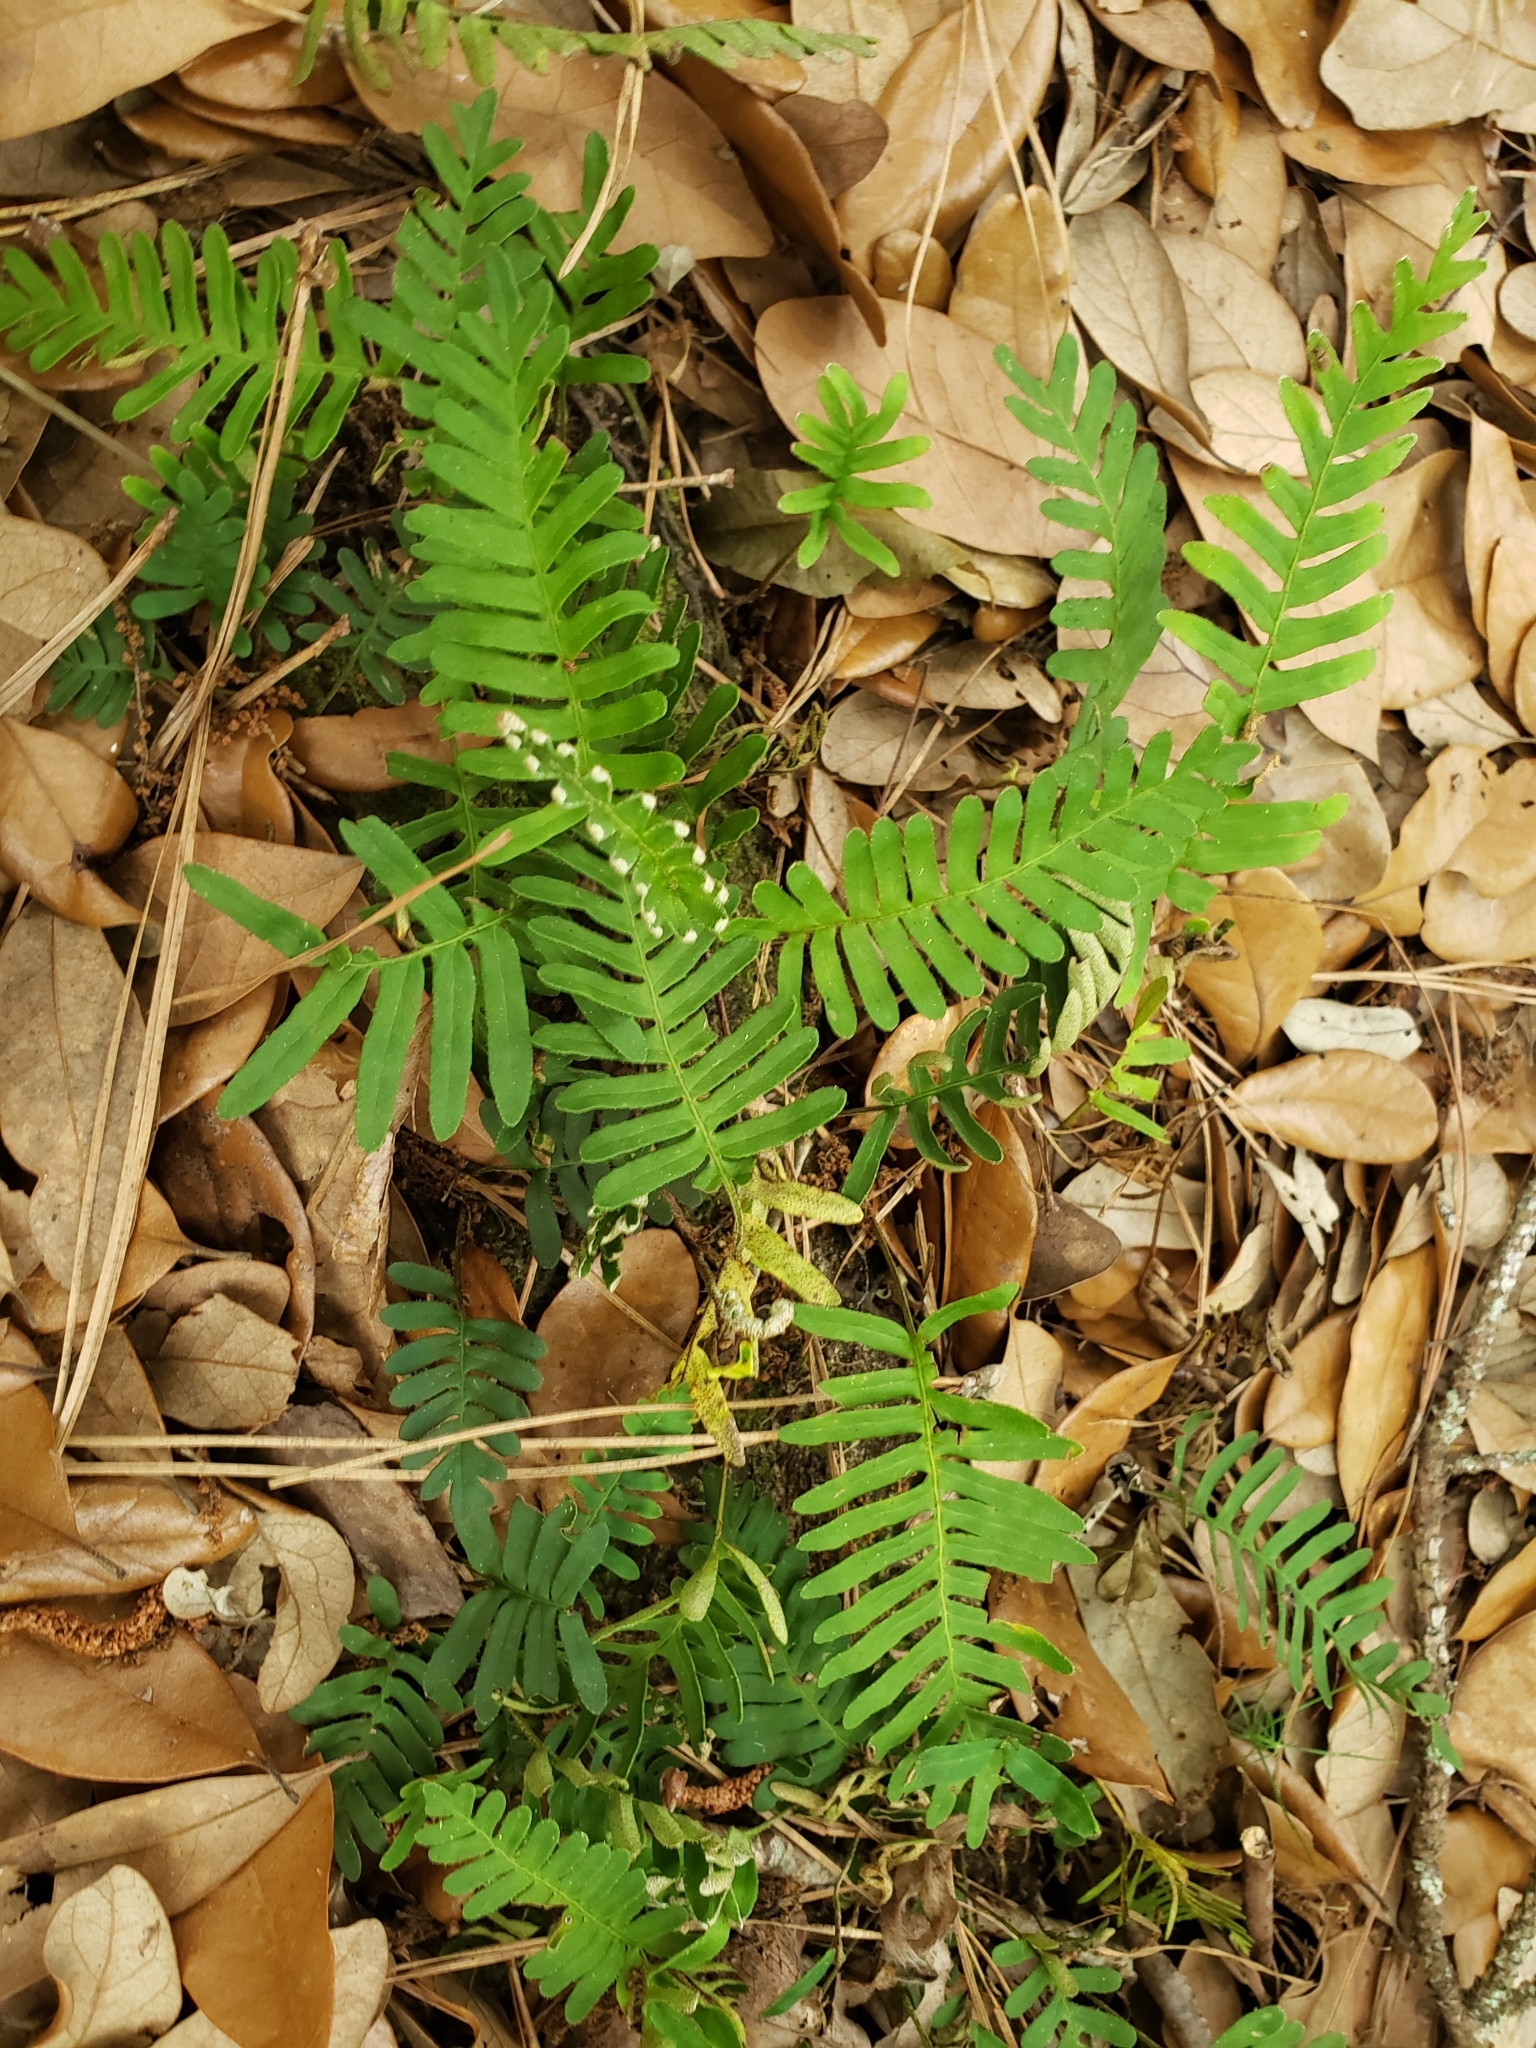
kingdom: Plantae
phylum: Tracheophyta
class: Polypodiopsida
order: Polypodiales
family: Polypodiaceae
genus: Pleopeltis
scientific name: Pleopeltis michauxiana
